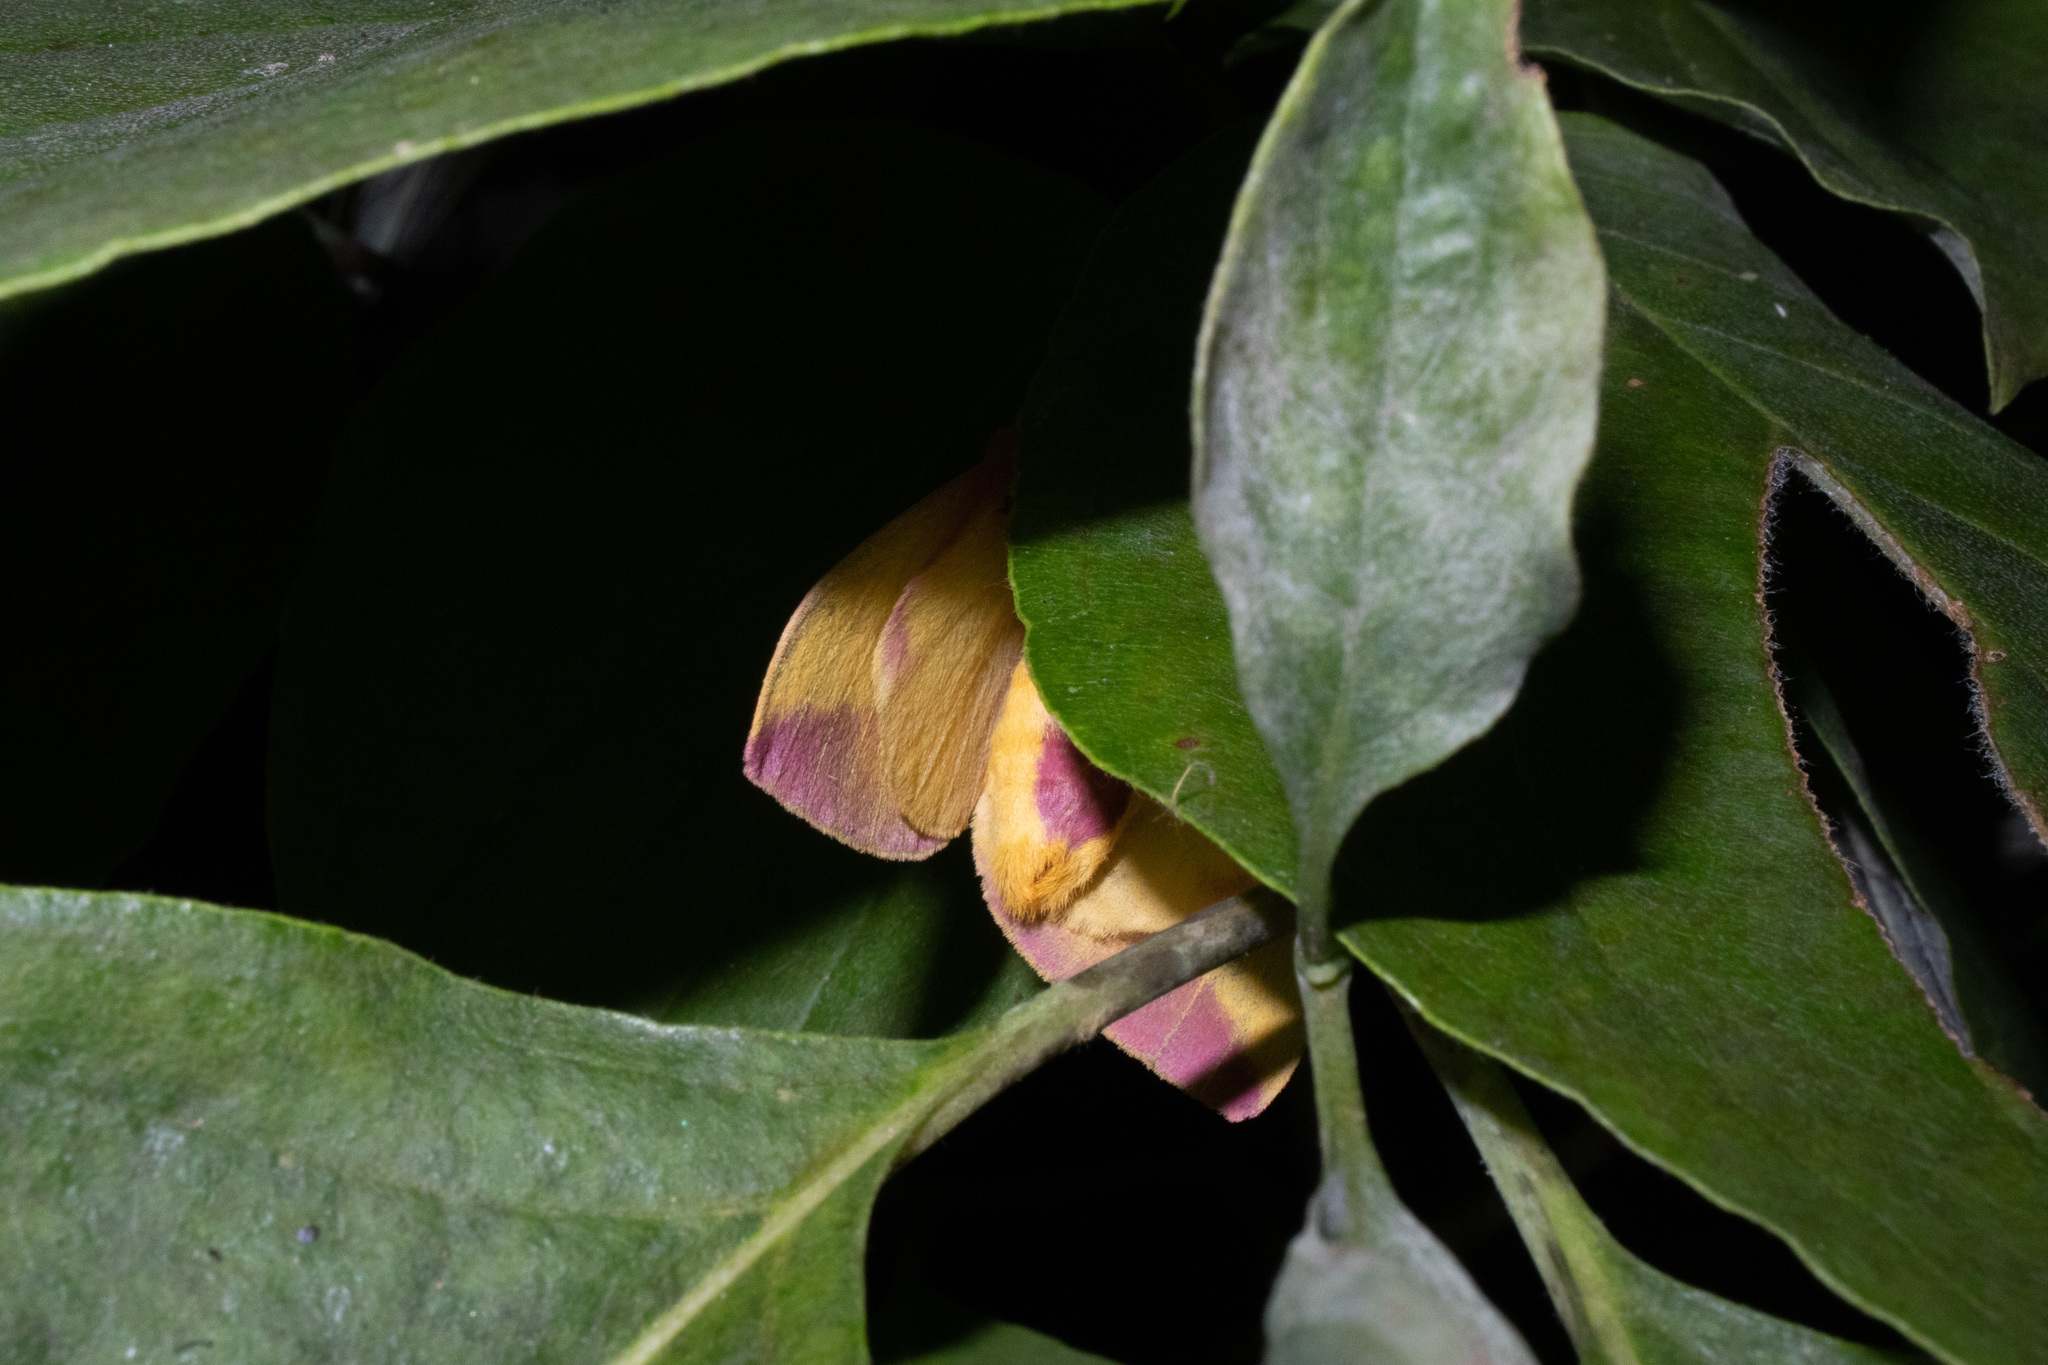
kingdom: Animalia
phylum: Arthropoda
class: Insecta
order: Lepidoptera
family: Saturniidae
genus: Dryocampa
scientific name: Dryocampa rubicunda
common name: Rosy maple moth
